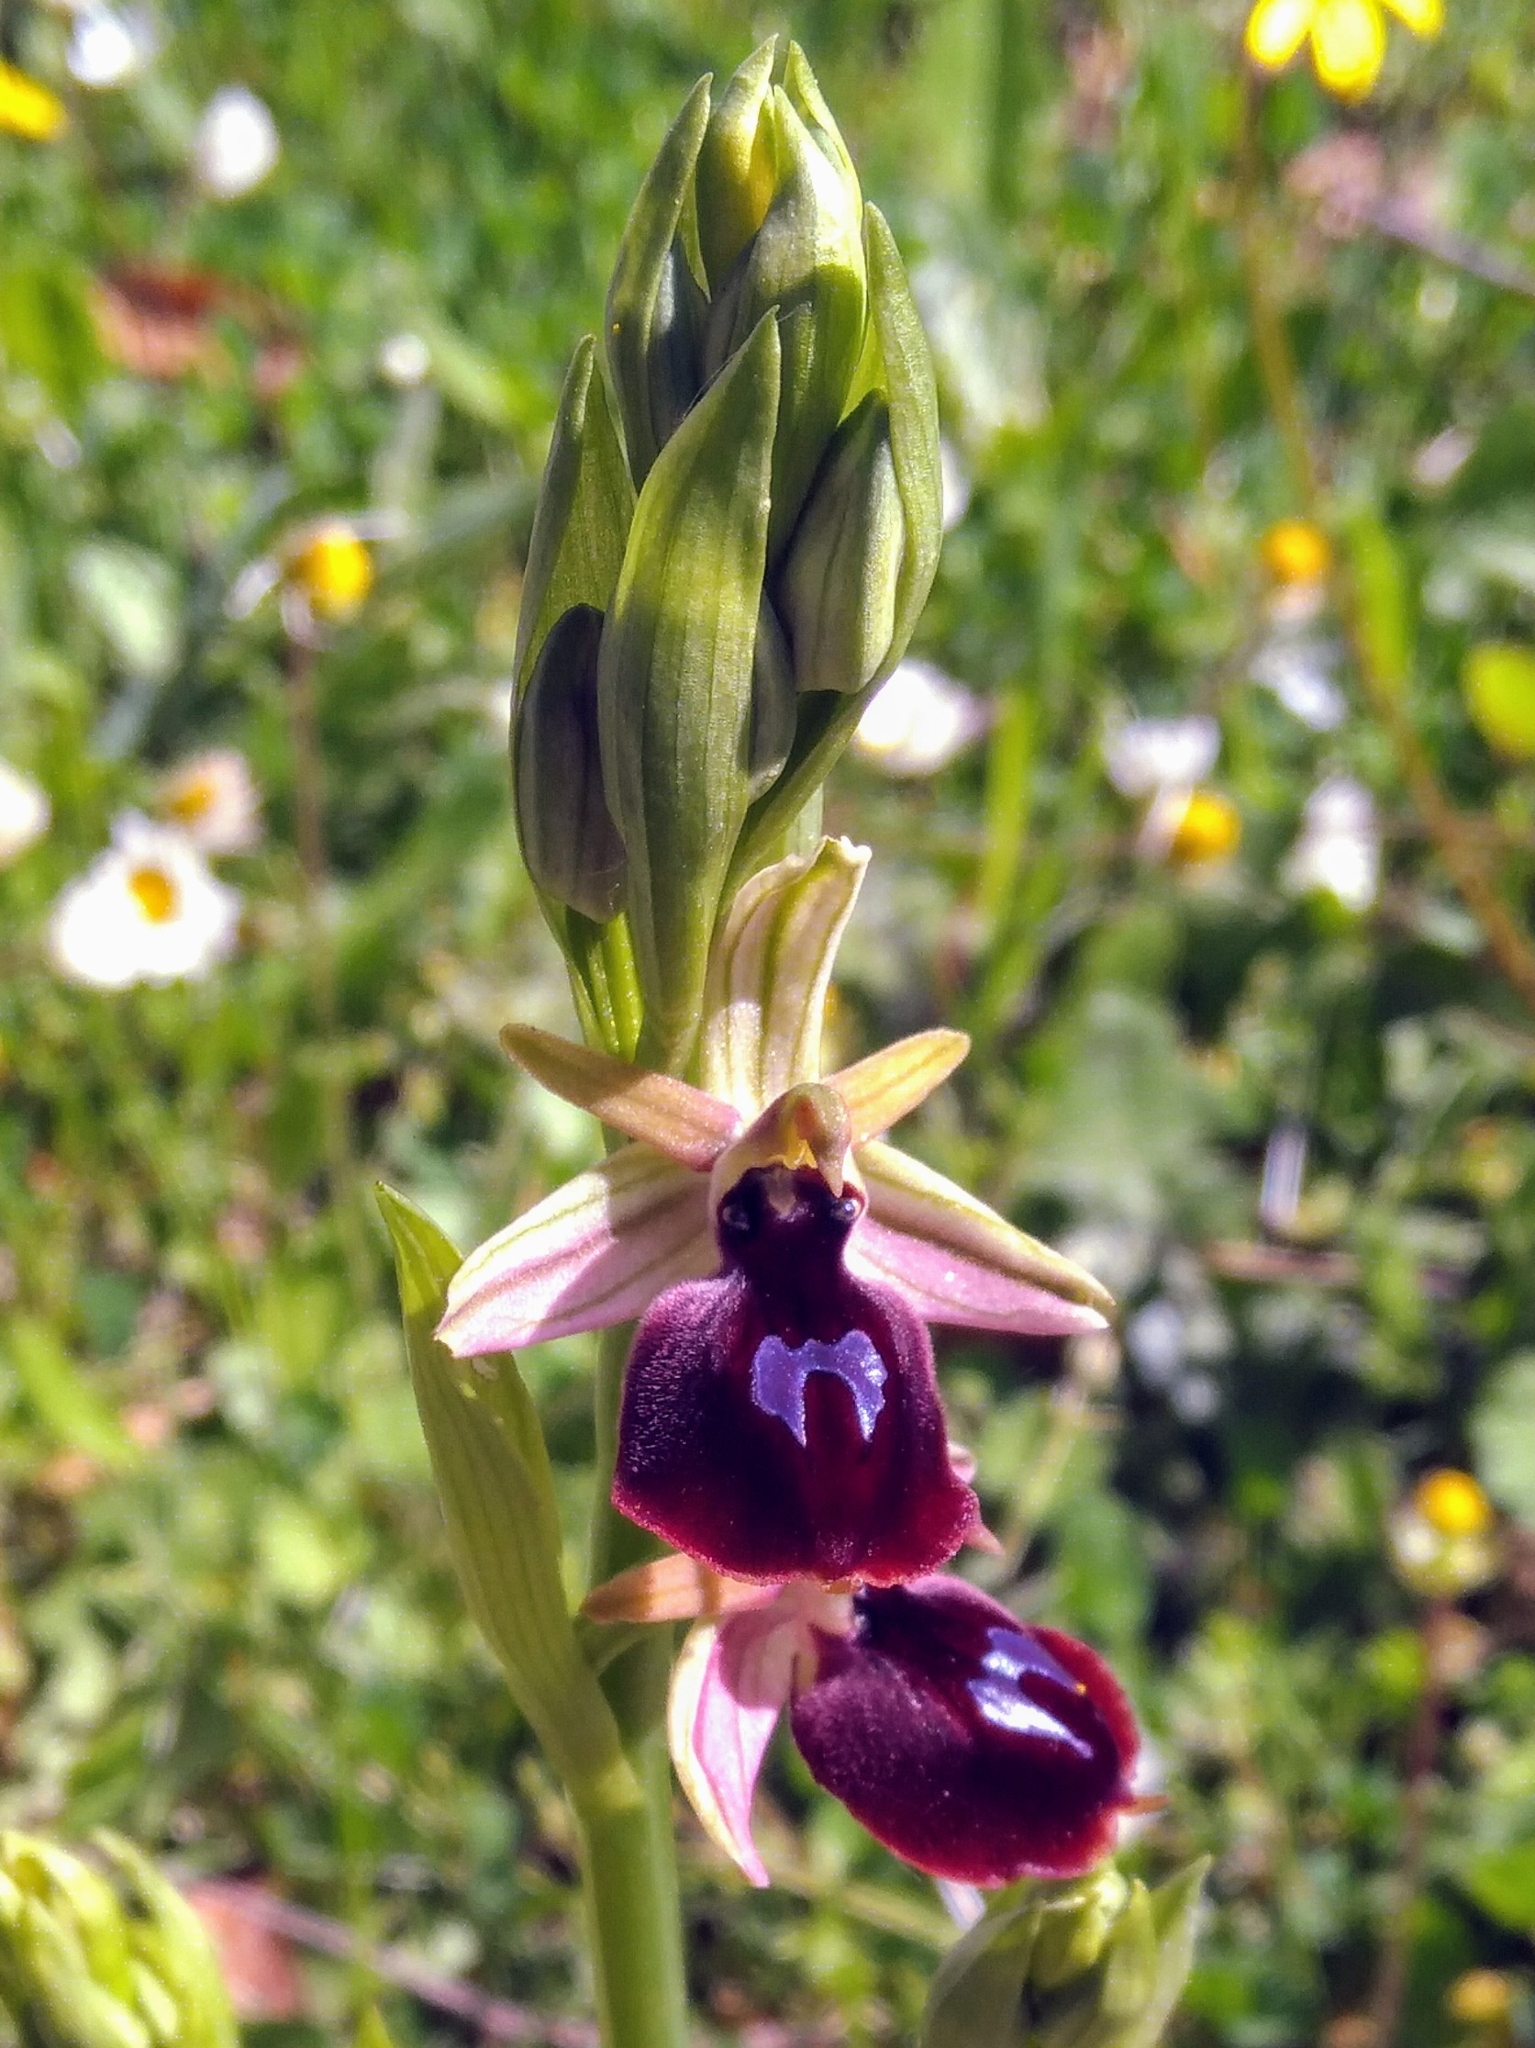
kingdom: Plantae
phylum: Tracheophyta
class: Liliopsida
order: Asparagales
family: Orchidaceae
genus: Ophrys
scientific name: Ophrys ferrum-equinum
